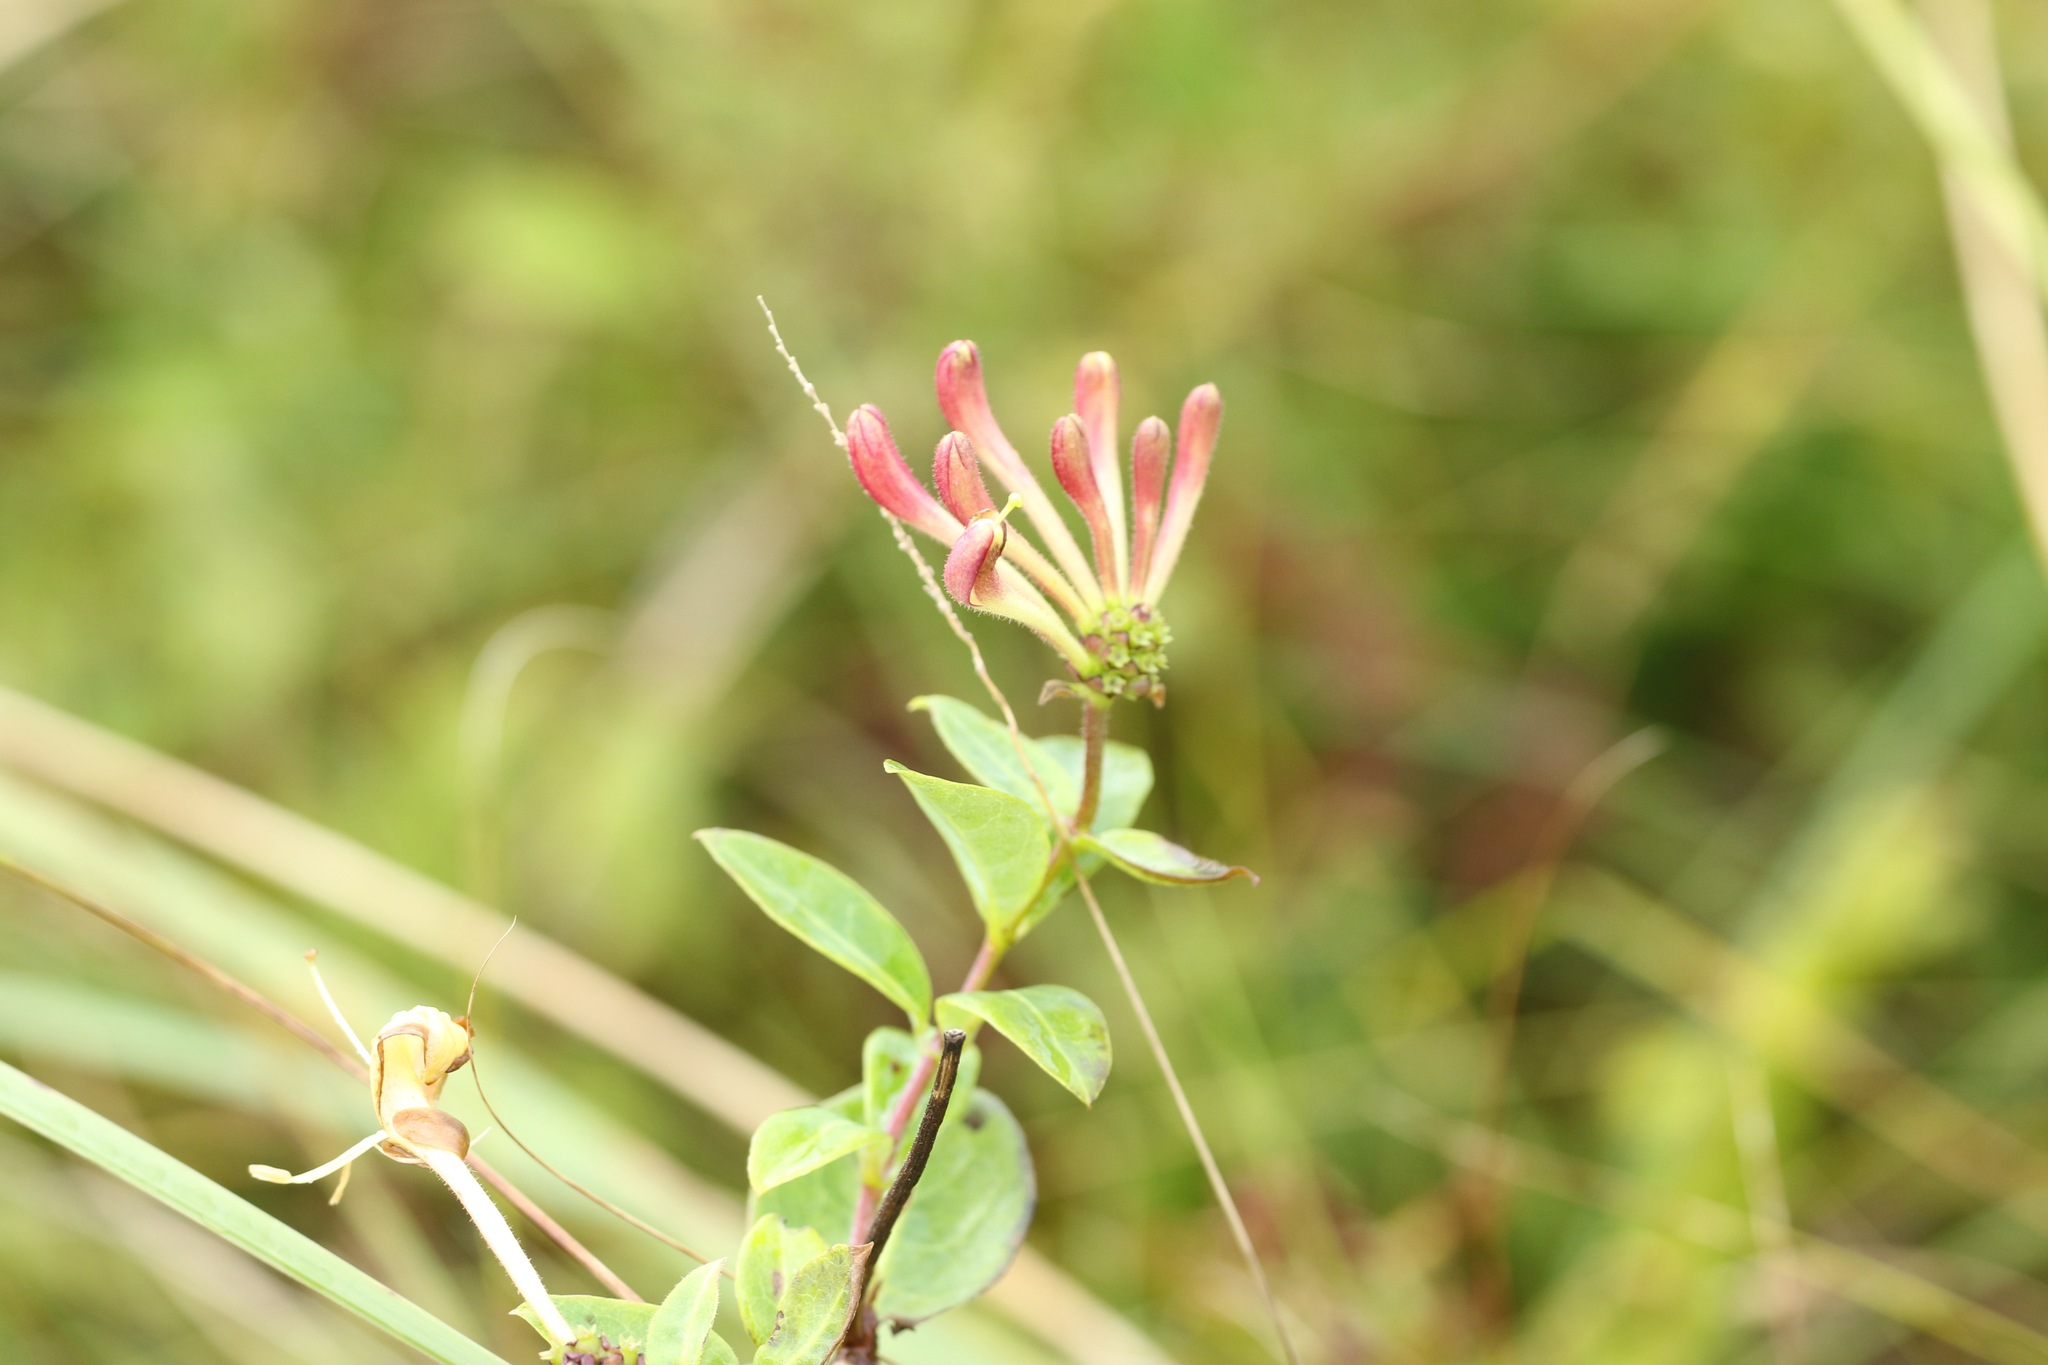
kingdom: Plantae
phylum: Tracheophyta
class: Magnoliopsida
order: Dipsacales
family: Caprifoliaceae
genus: Lonicera
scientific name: Lonicera periclymenum
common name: European honeysuckle
